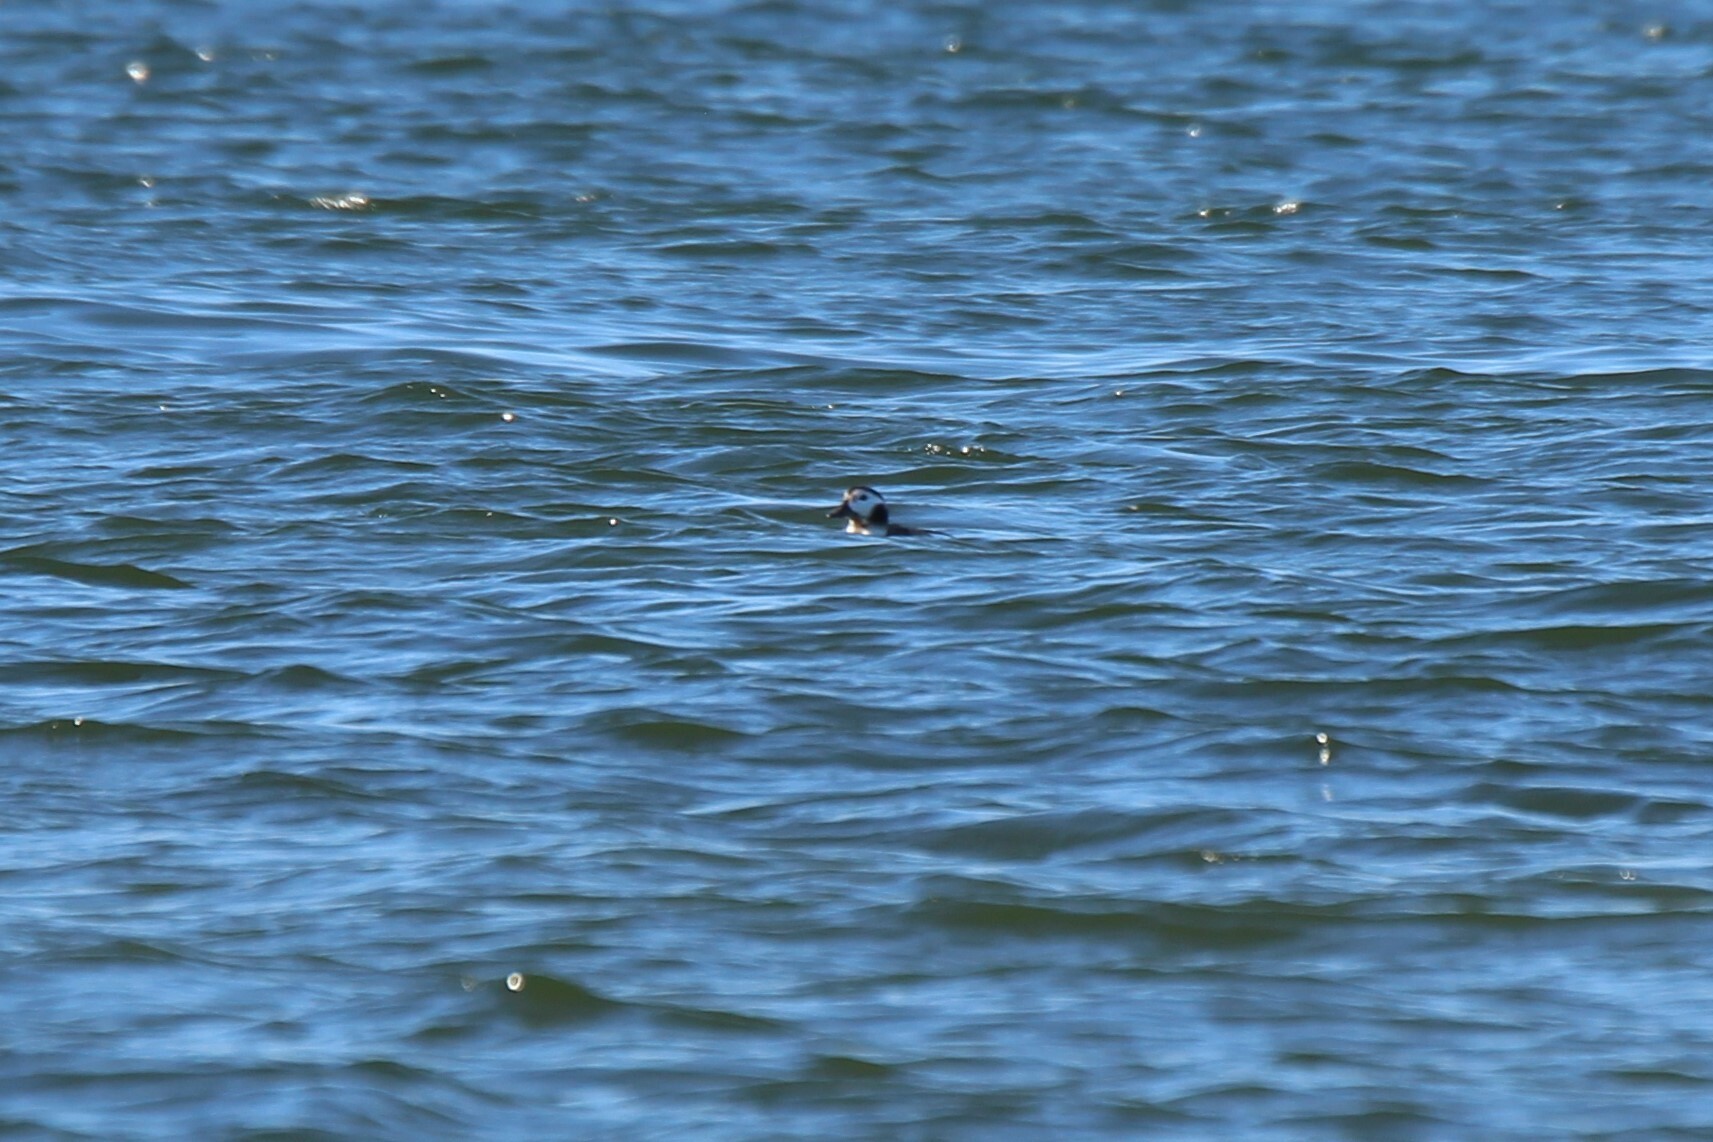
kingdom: Animalia
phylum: Chordata
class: Aves
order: Anseriformes
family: Anatidae
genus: Clangula
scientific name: Clangula hyemalis
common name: Long-tailed duck
